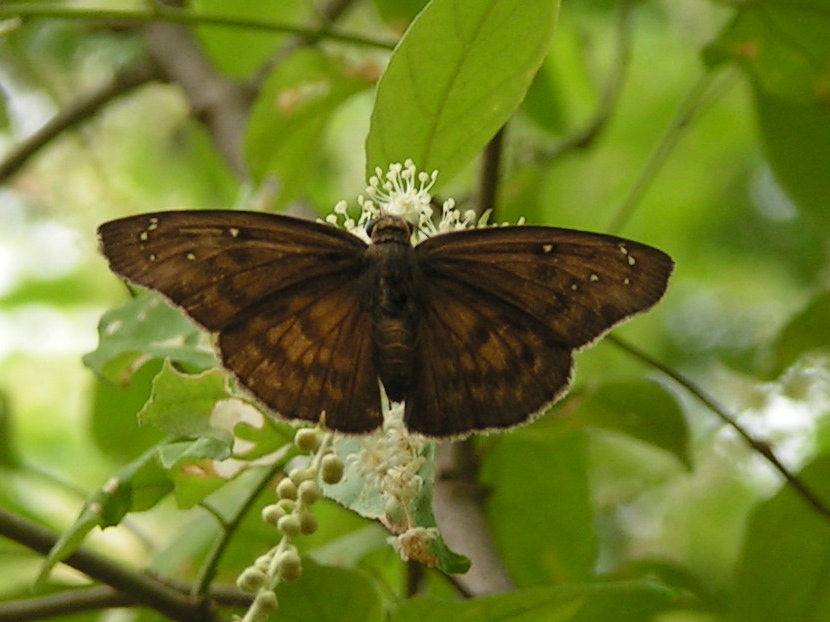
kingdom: Animalia
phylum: Arthropoda
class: Insecta
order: Lepidoptera
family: Hesperiidae
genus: Grais
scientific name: Grais stigmaticus
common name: Hermit skipper
